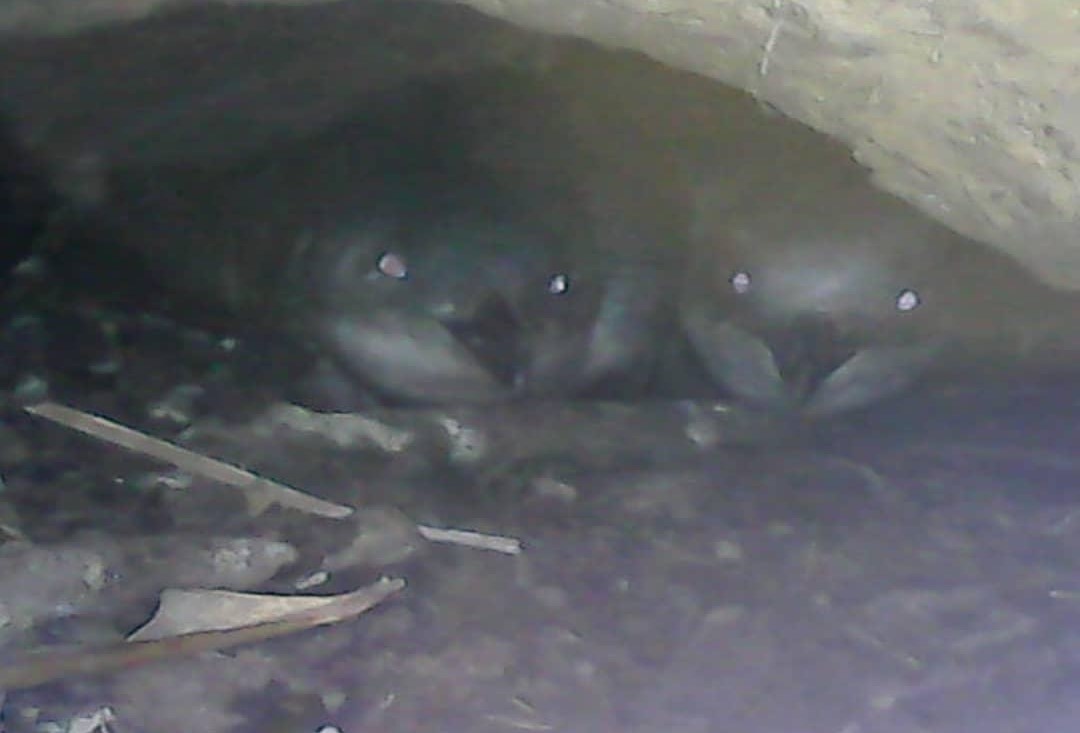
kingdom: Animalia
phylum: Chordata
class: Aves
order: Sphenisciformes
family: Spheniscidae
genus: Eudyptula
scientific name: Eudyptula minor
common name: Little penguin
